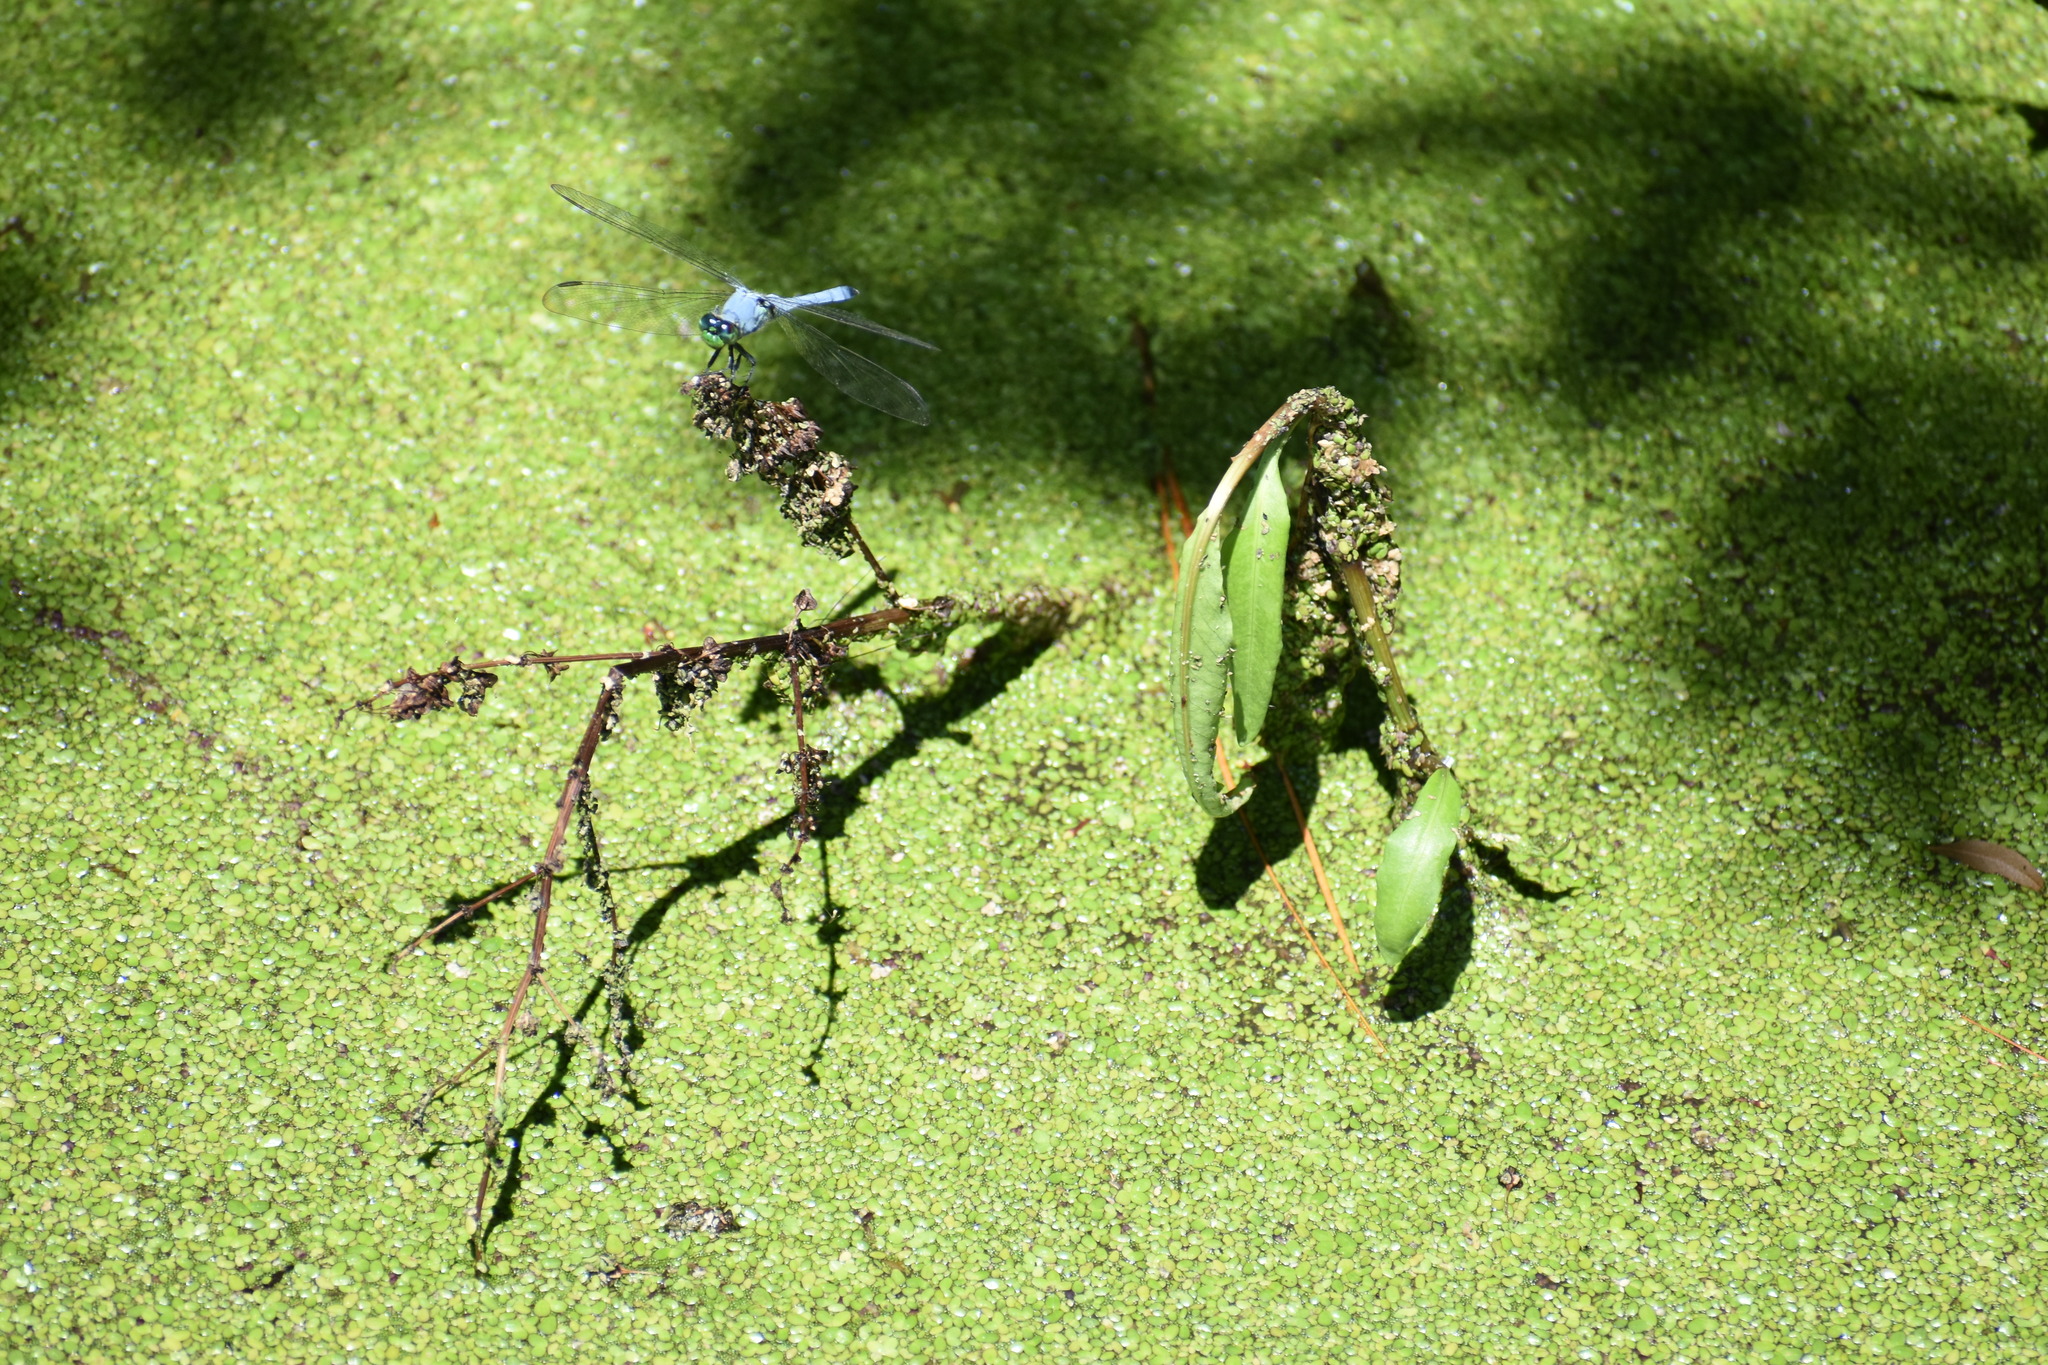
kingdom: Animalia
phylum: Arthropoda
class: Insecta
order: Odonata
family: Libellulidae
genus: Erythemis
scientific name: Erythemis simplicicollis
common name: Eastern pondhawk
